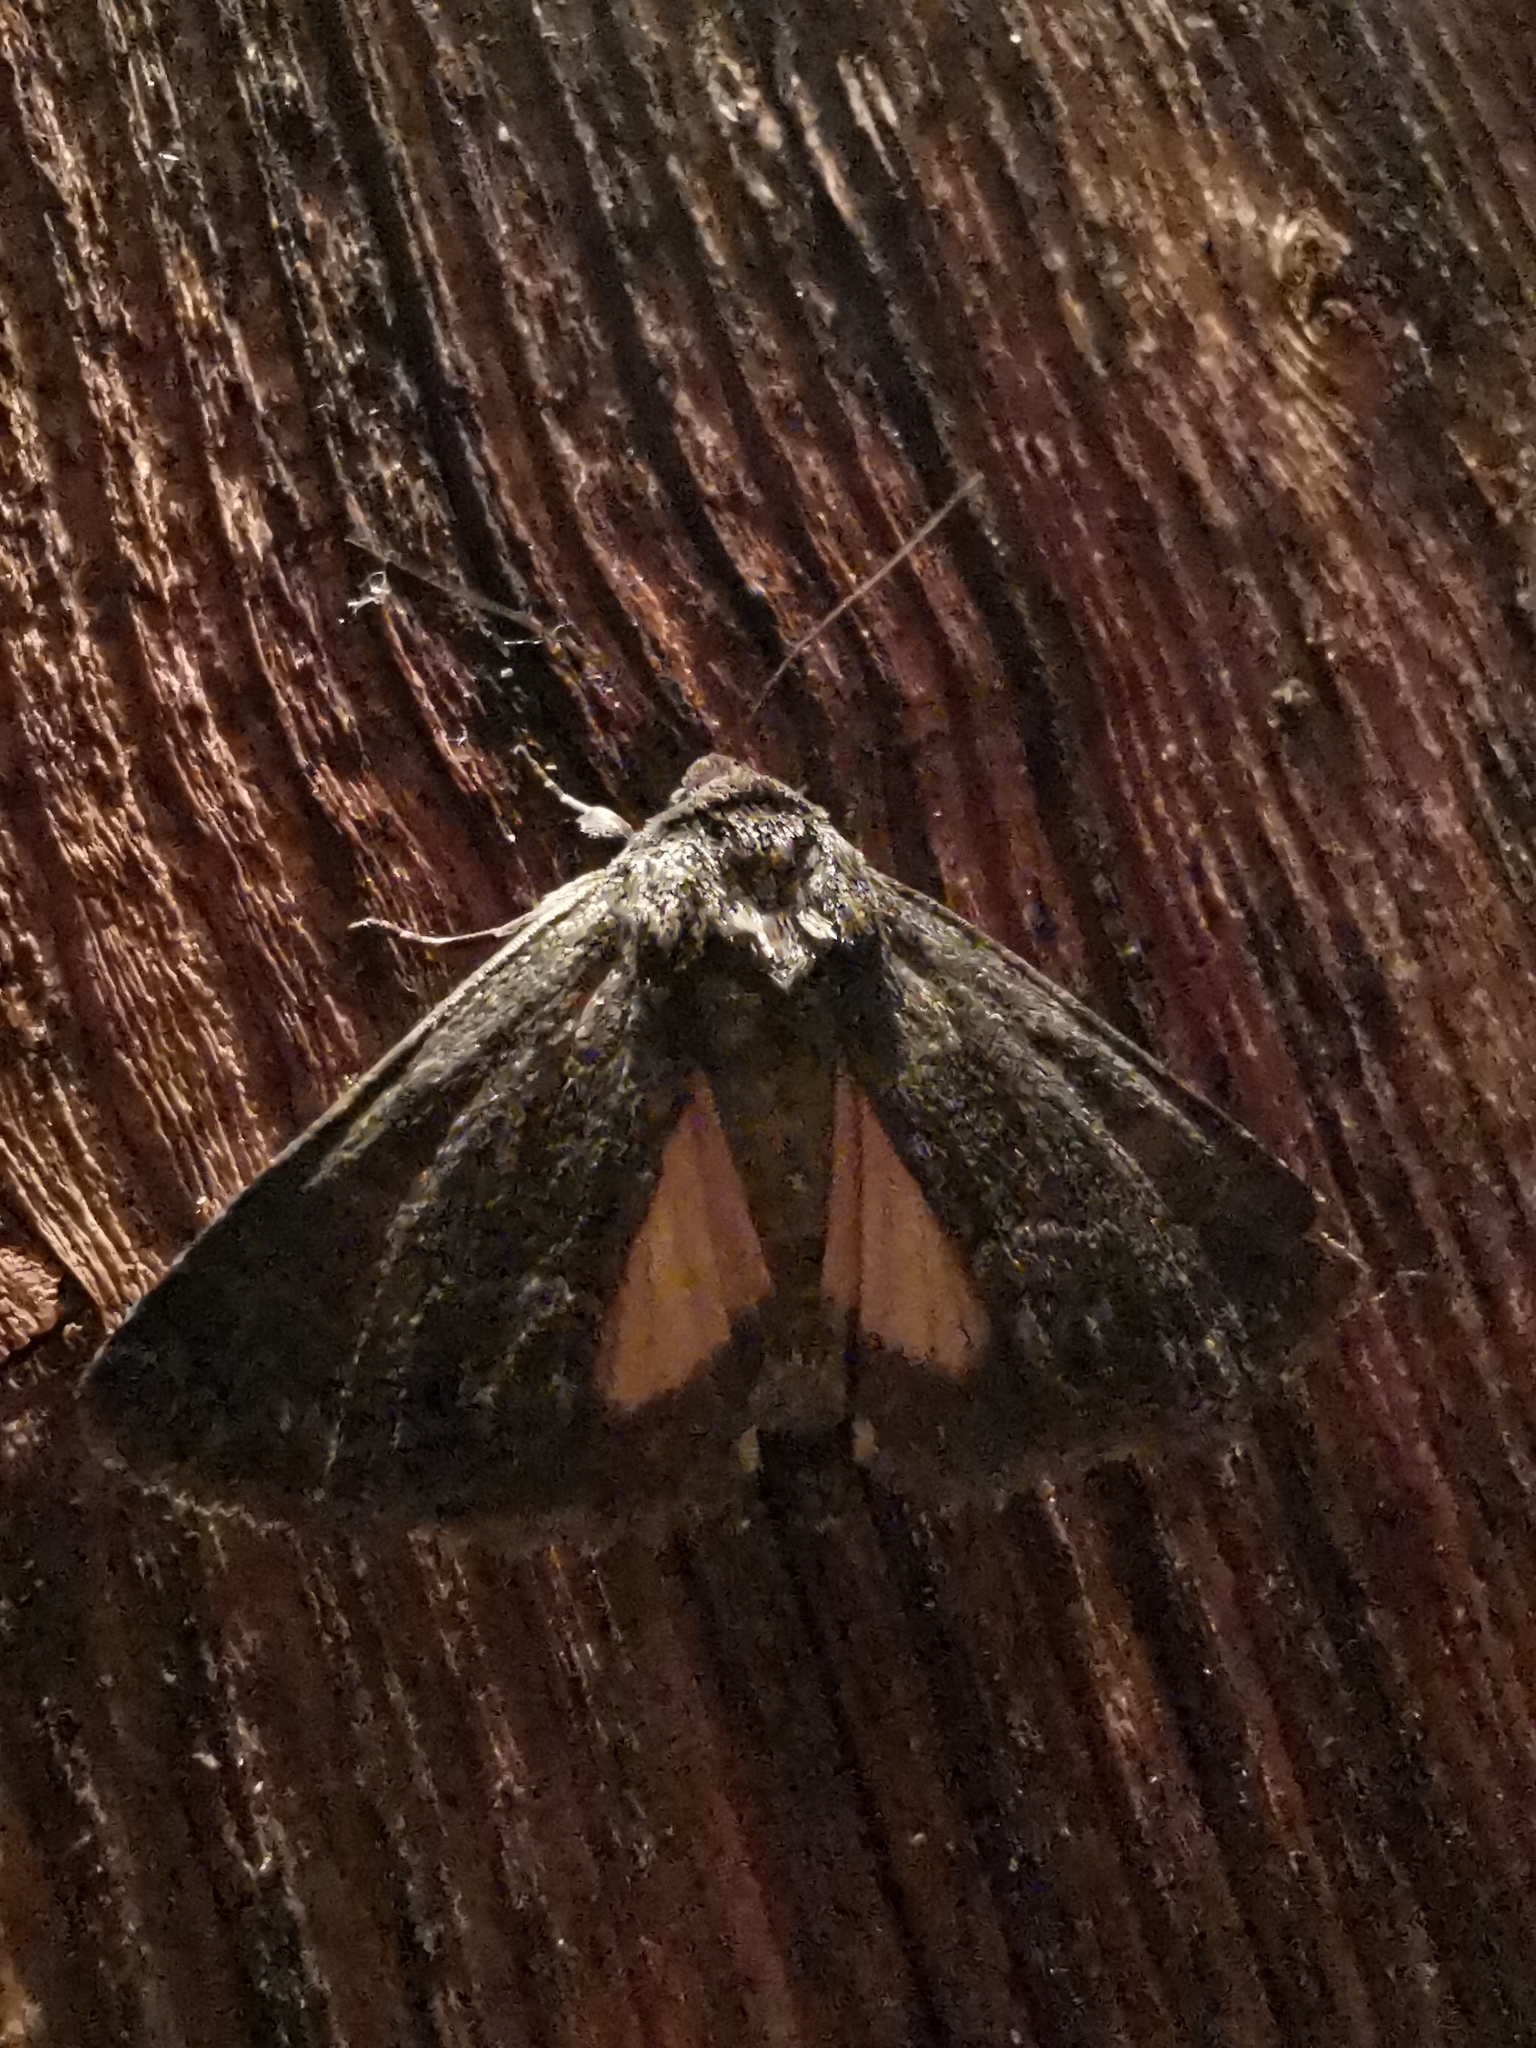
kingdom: Animalia
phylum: Arthropoda
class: Insecta
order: Lepidoptera
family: Noctuidae
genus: Thalpophila
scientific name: Thalpophila matura
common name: Straw underwing
